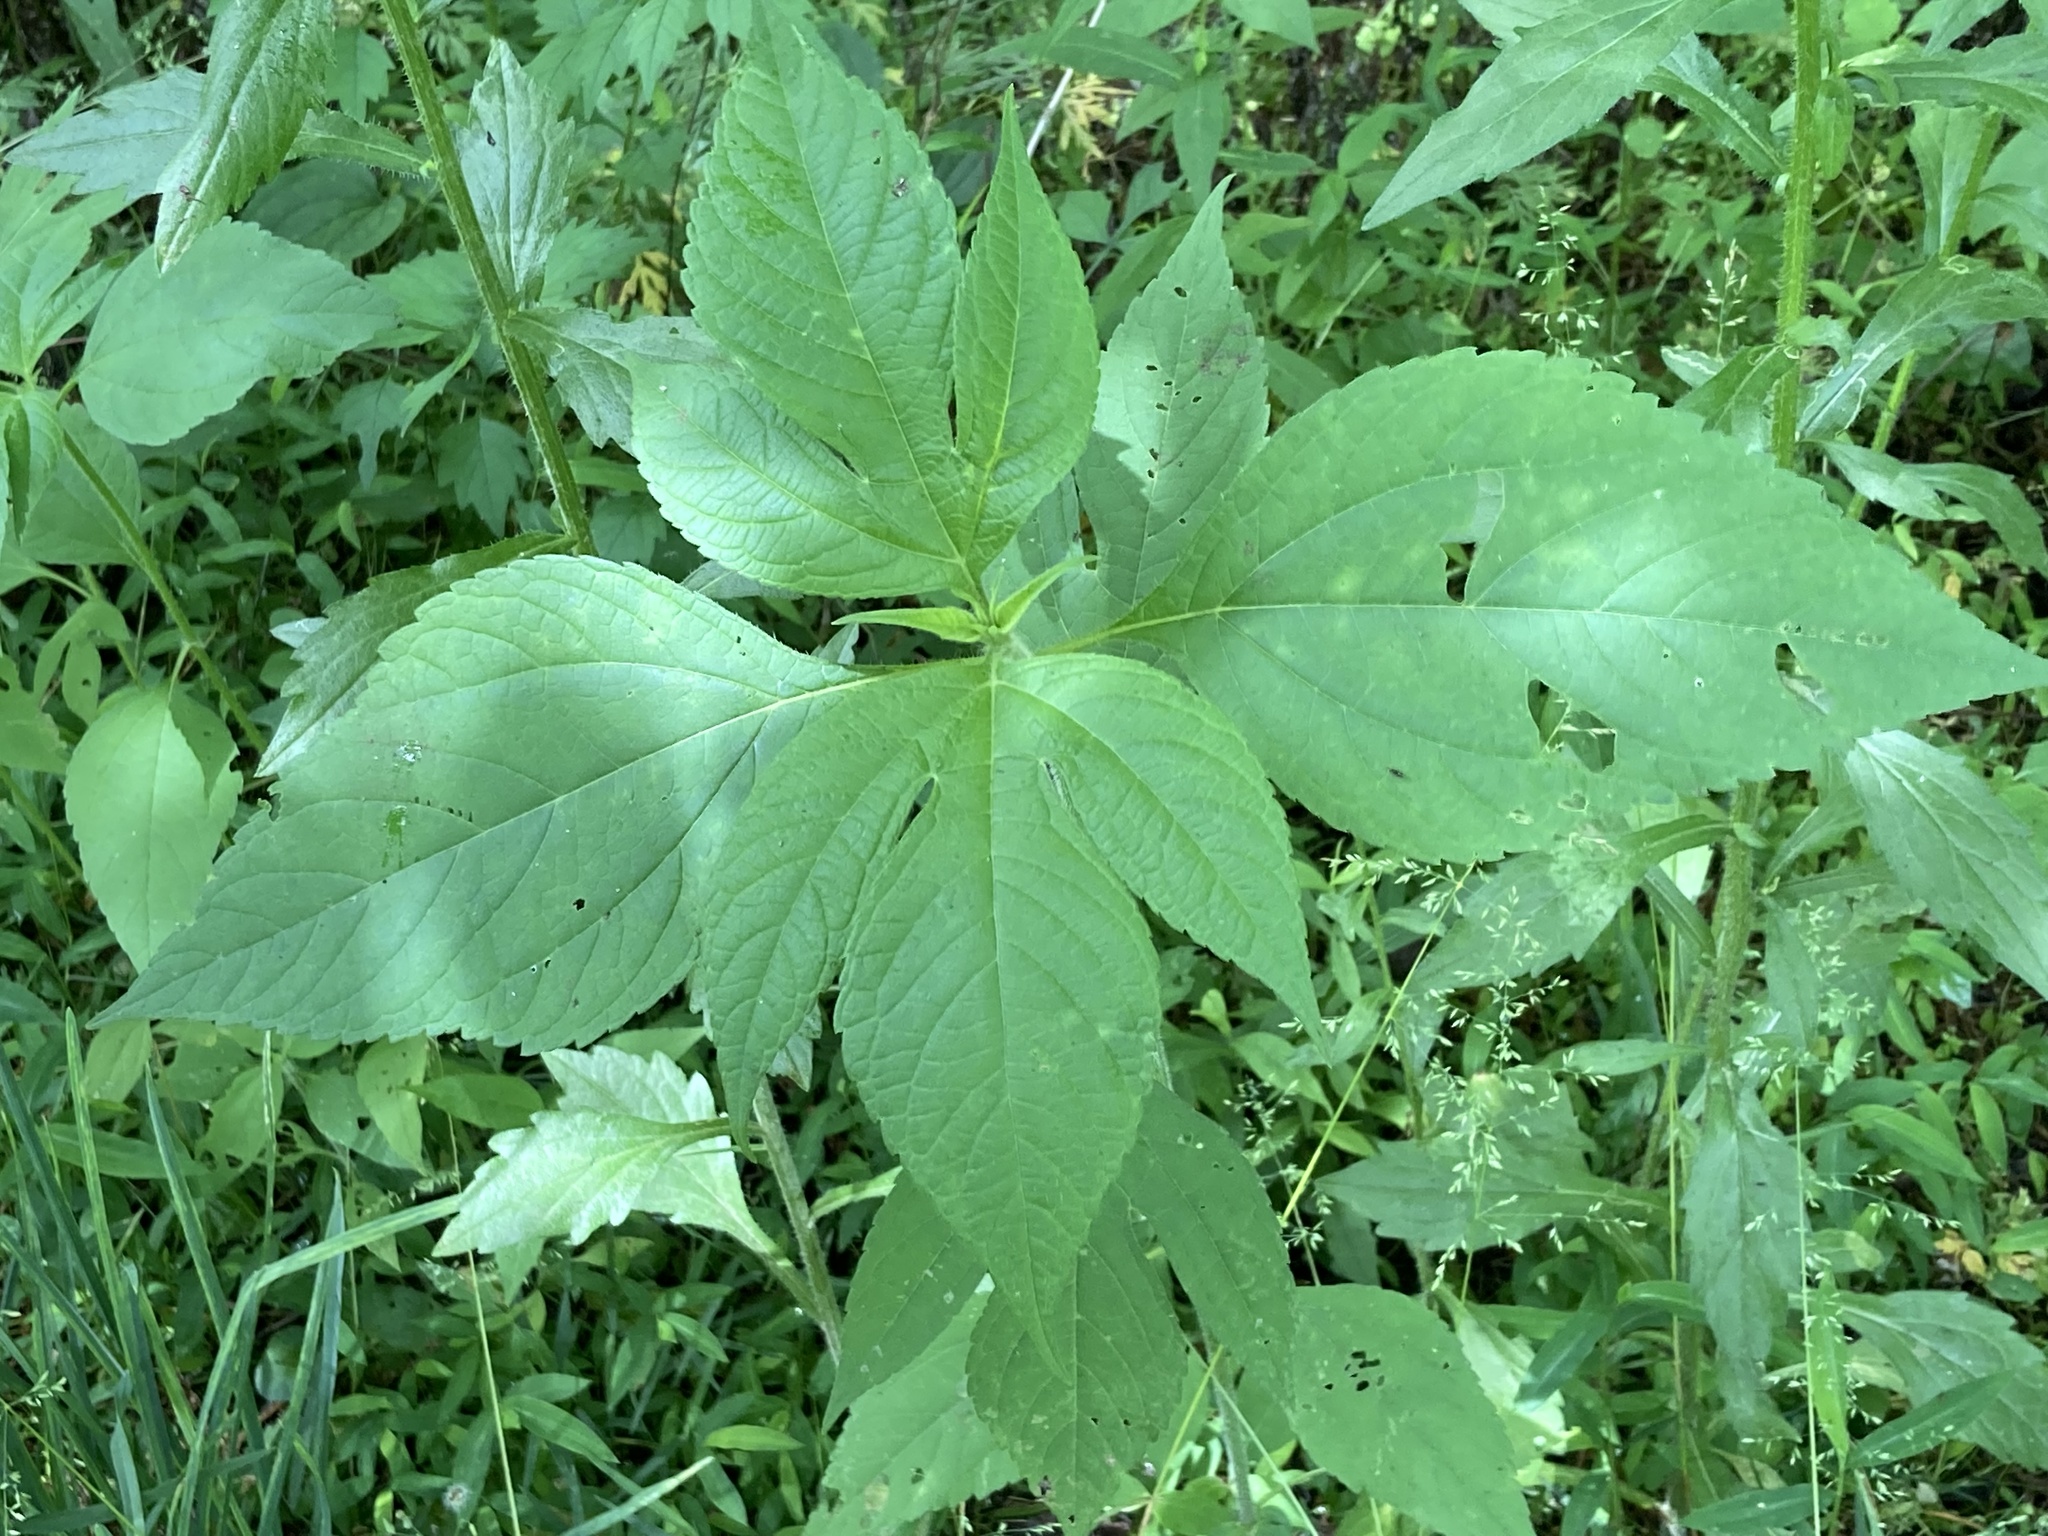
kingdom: Plantae
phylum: Tracheophyta
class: Magnoliopsida
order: Asterales
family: Asteraceae
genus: Ambrosia
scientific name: Ambrosia trifida
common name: Giant ragweed
